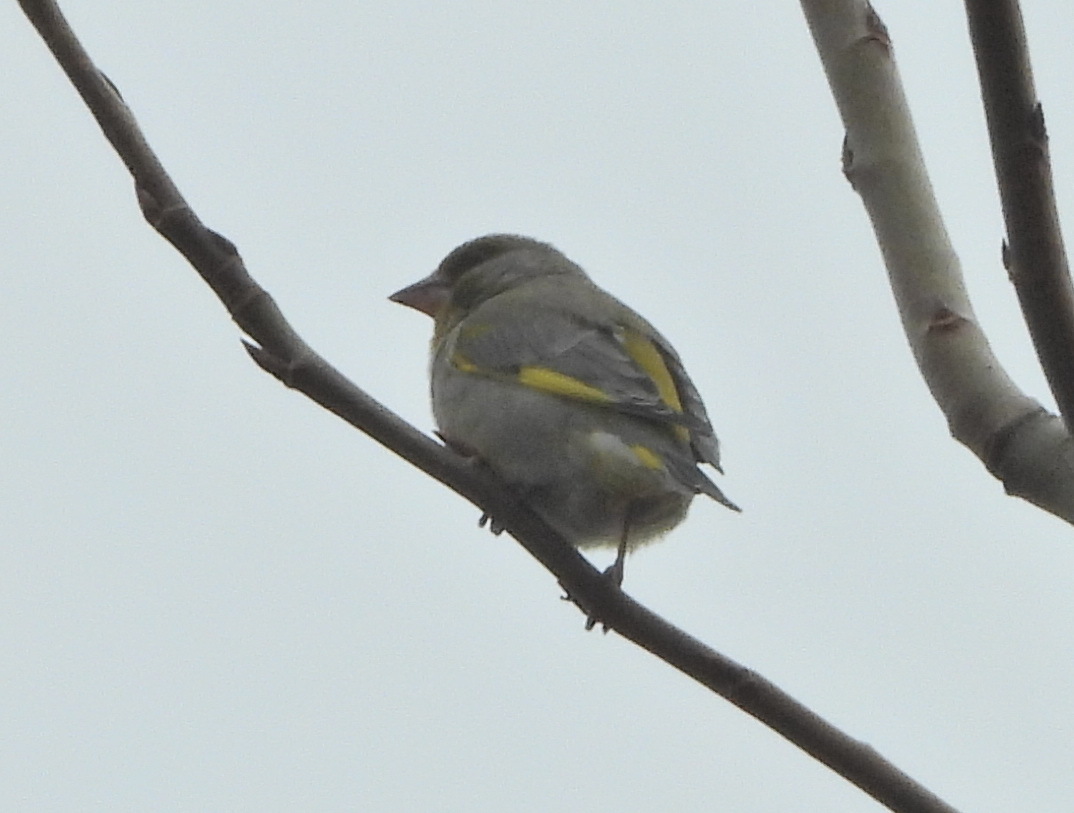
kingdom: Plantae
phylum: Tracheophyta
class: Liliopsida
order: Poales
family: Poaceae
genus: Chloris
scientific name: Chloris chloris
